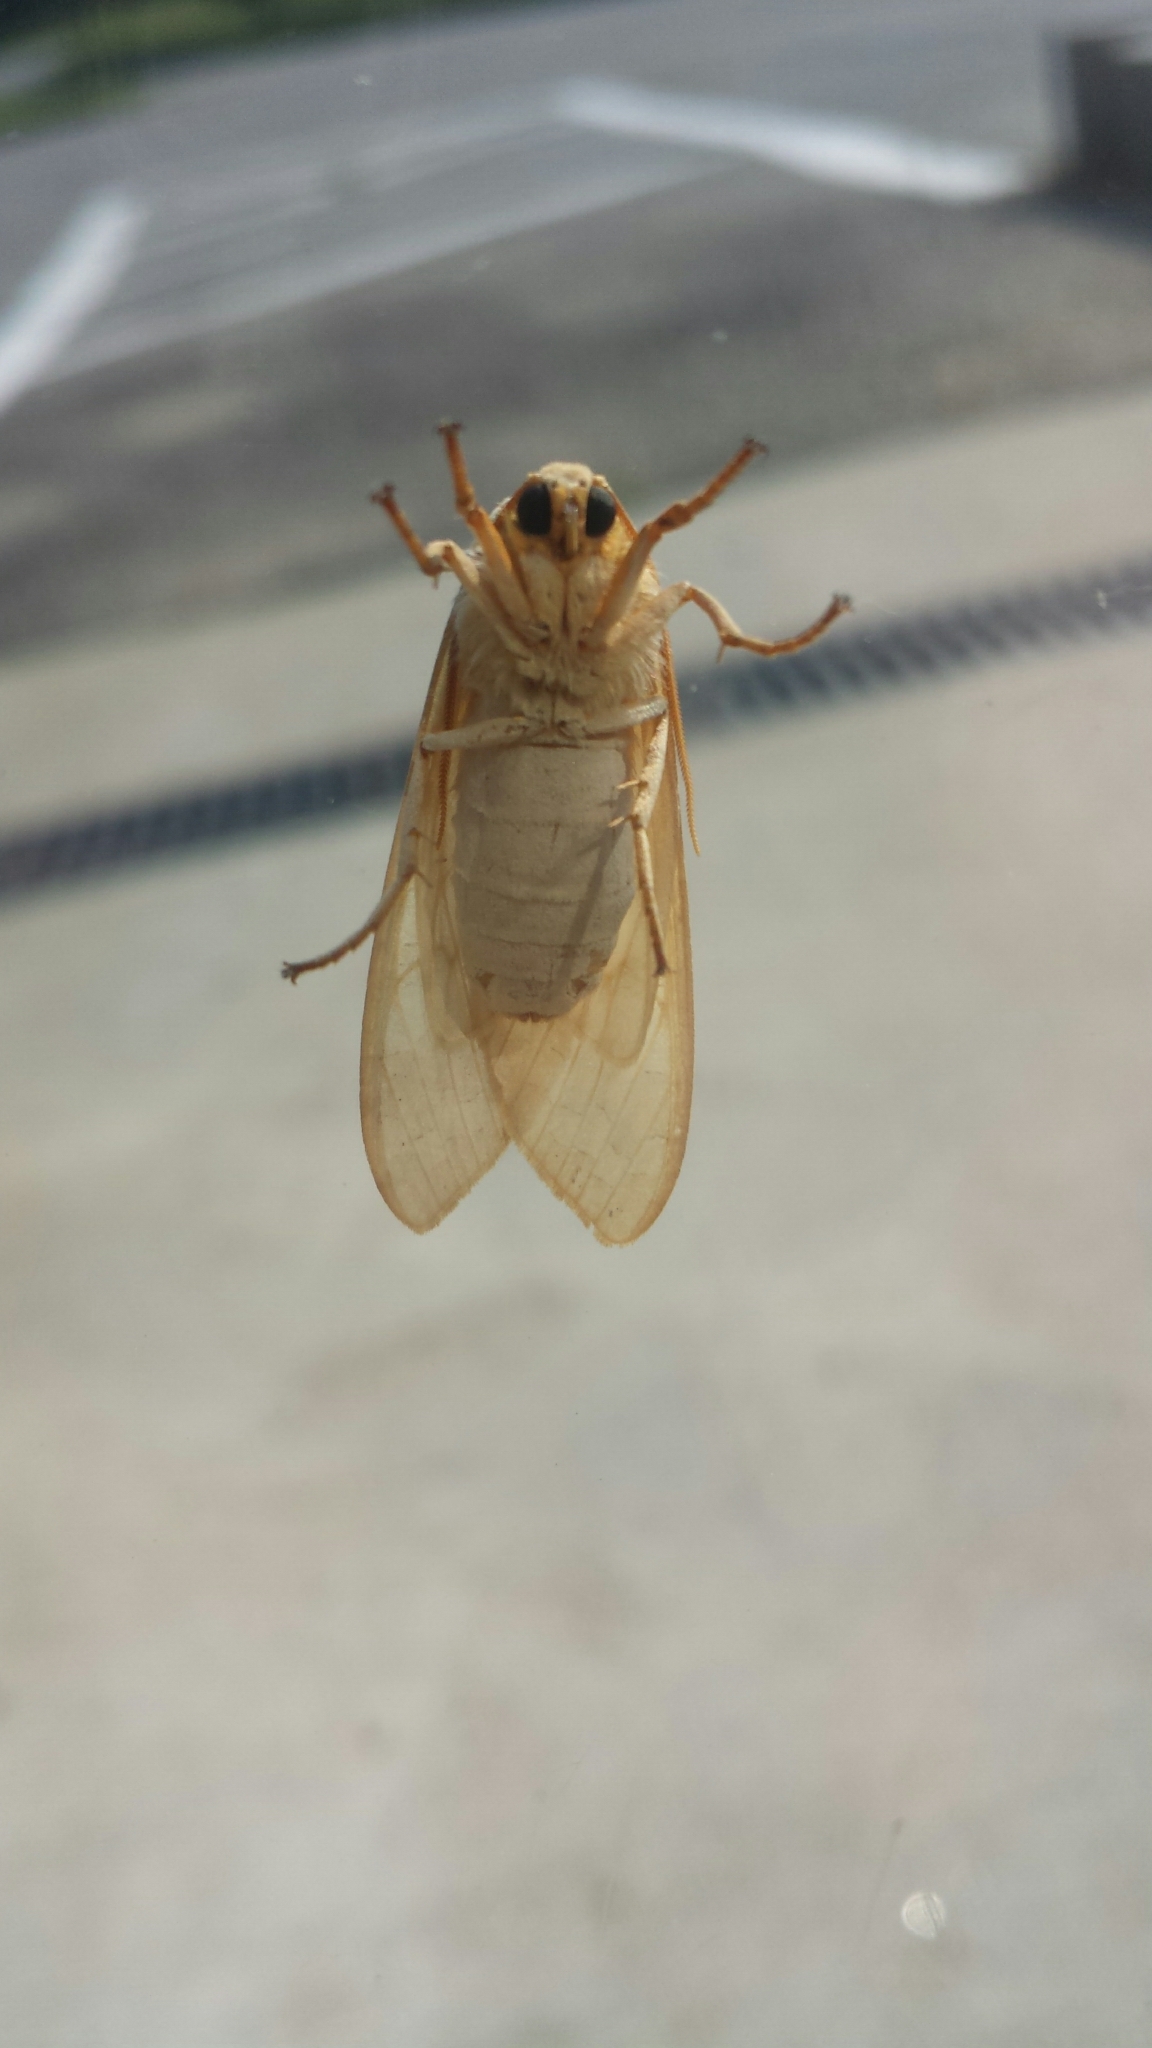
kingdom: Animalia
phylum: Arthropoda
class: Insecta
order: Lepidoptera
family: Erebidae
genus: Halysidota
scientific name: Halysidota
